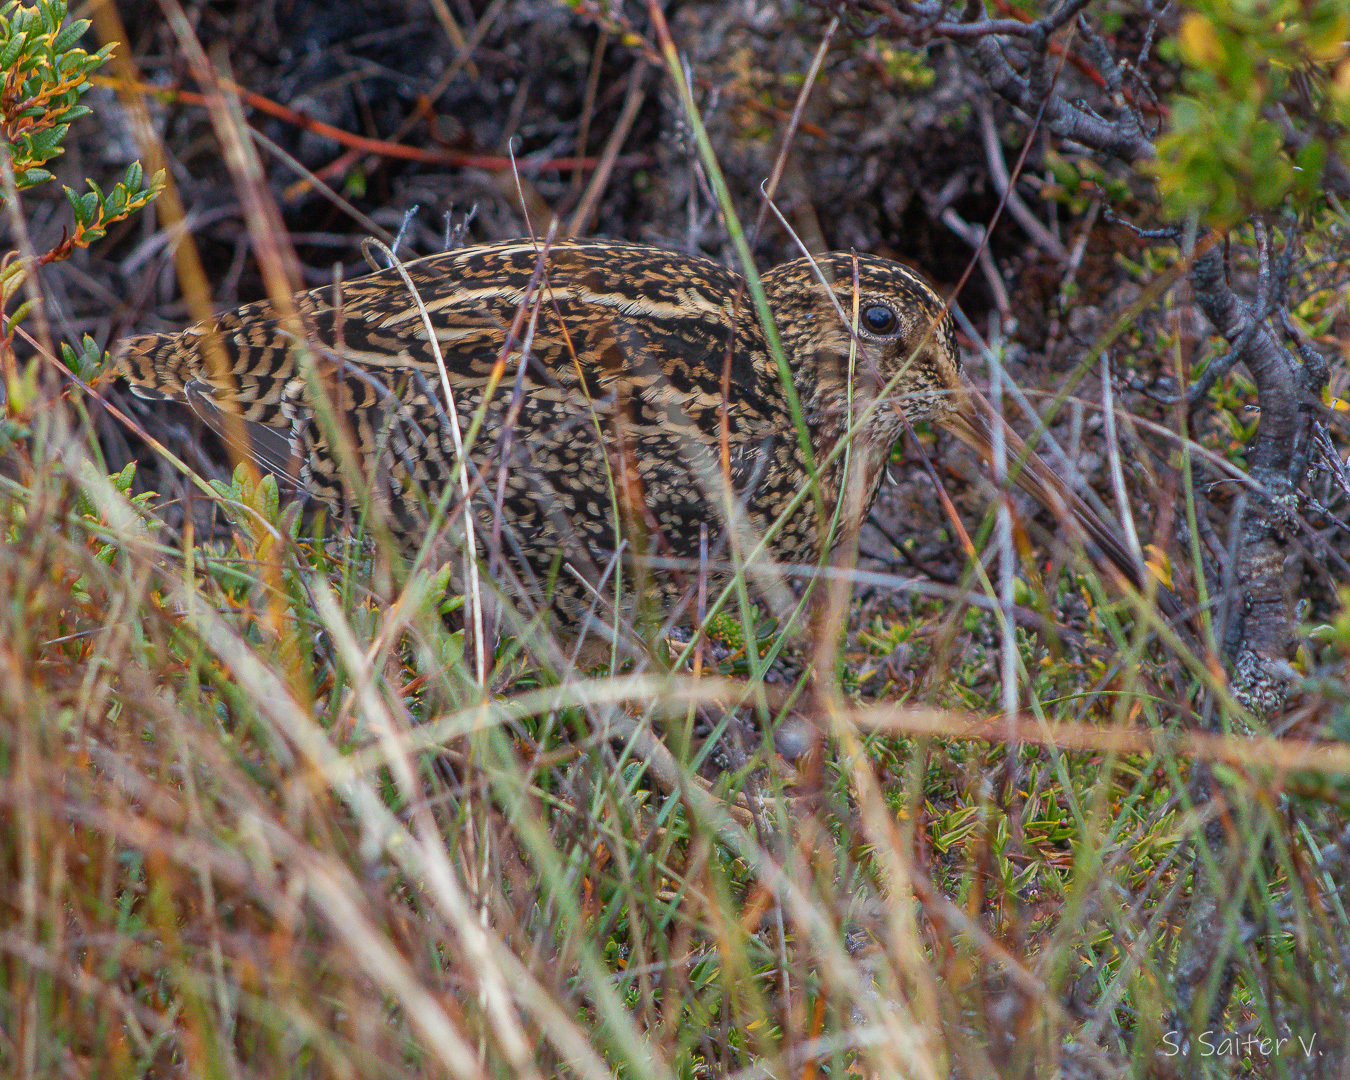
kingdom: Animalia
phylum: Chordata
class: Aves
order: Charadriiformes
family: Scolopacidae
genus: Gallinago
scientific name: Gallinago stricklandii
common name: Fuegian snipe
